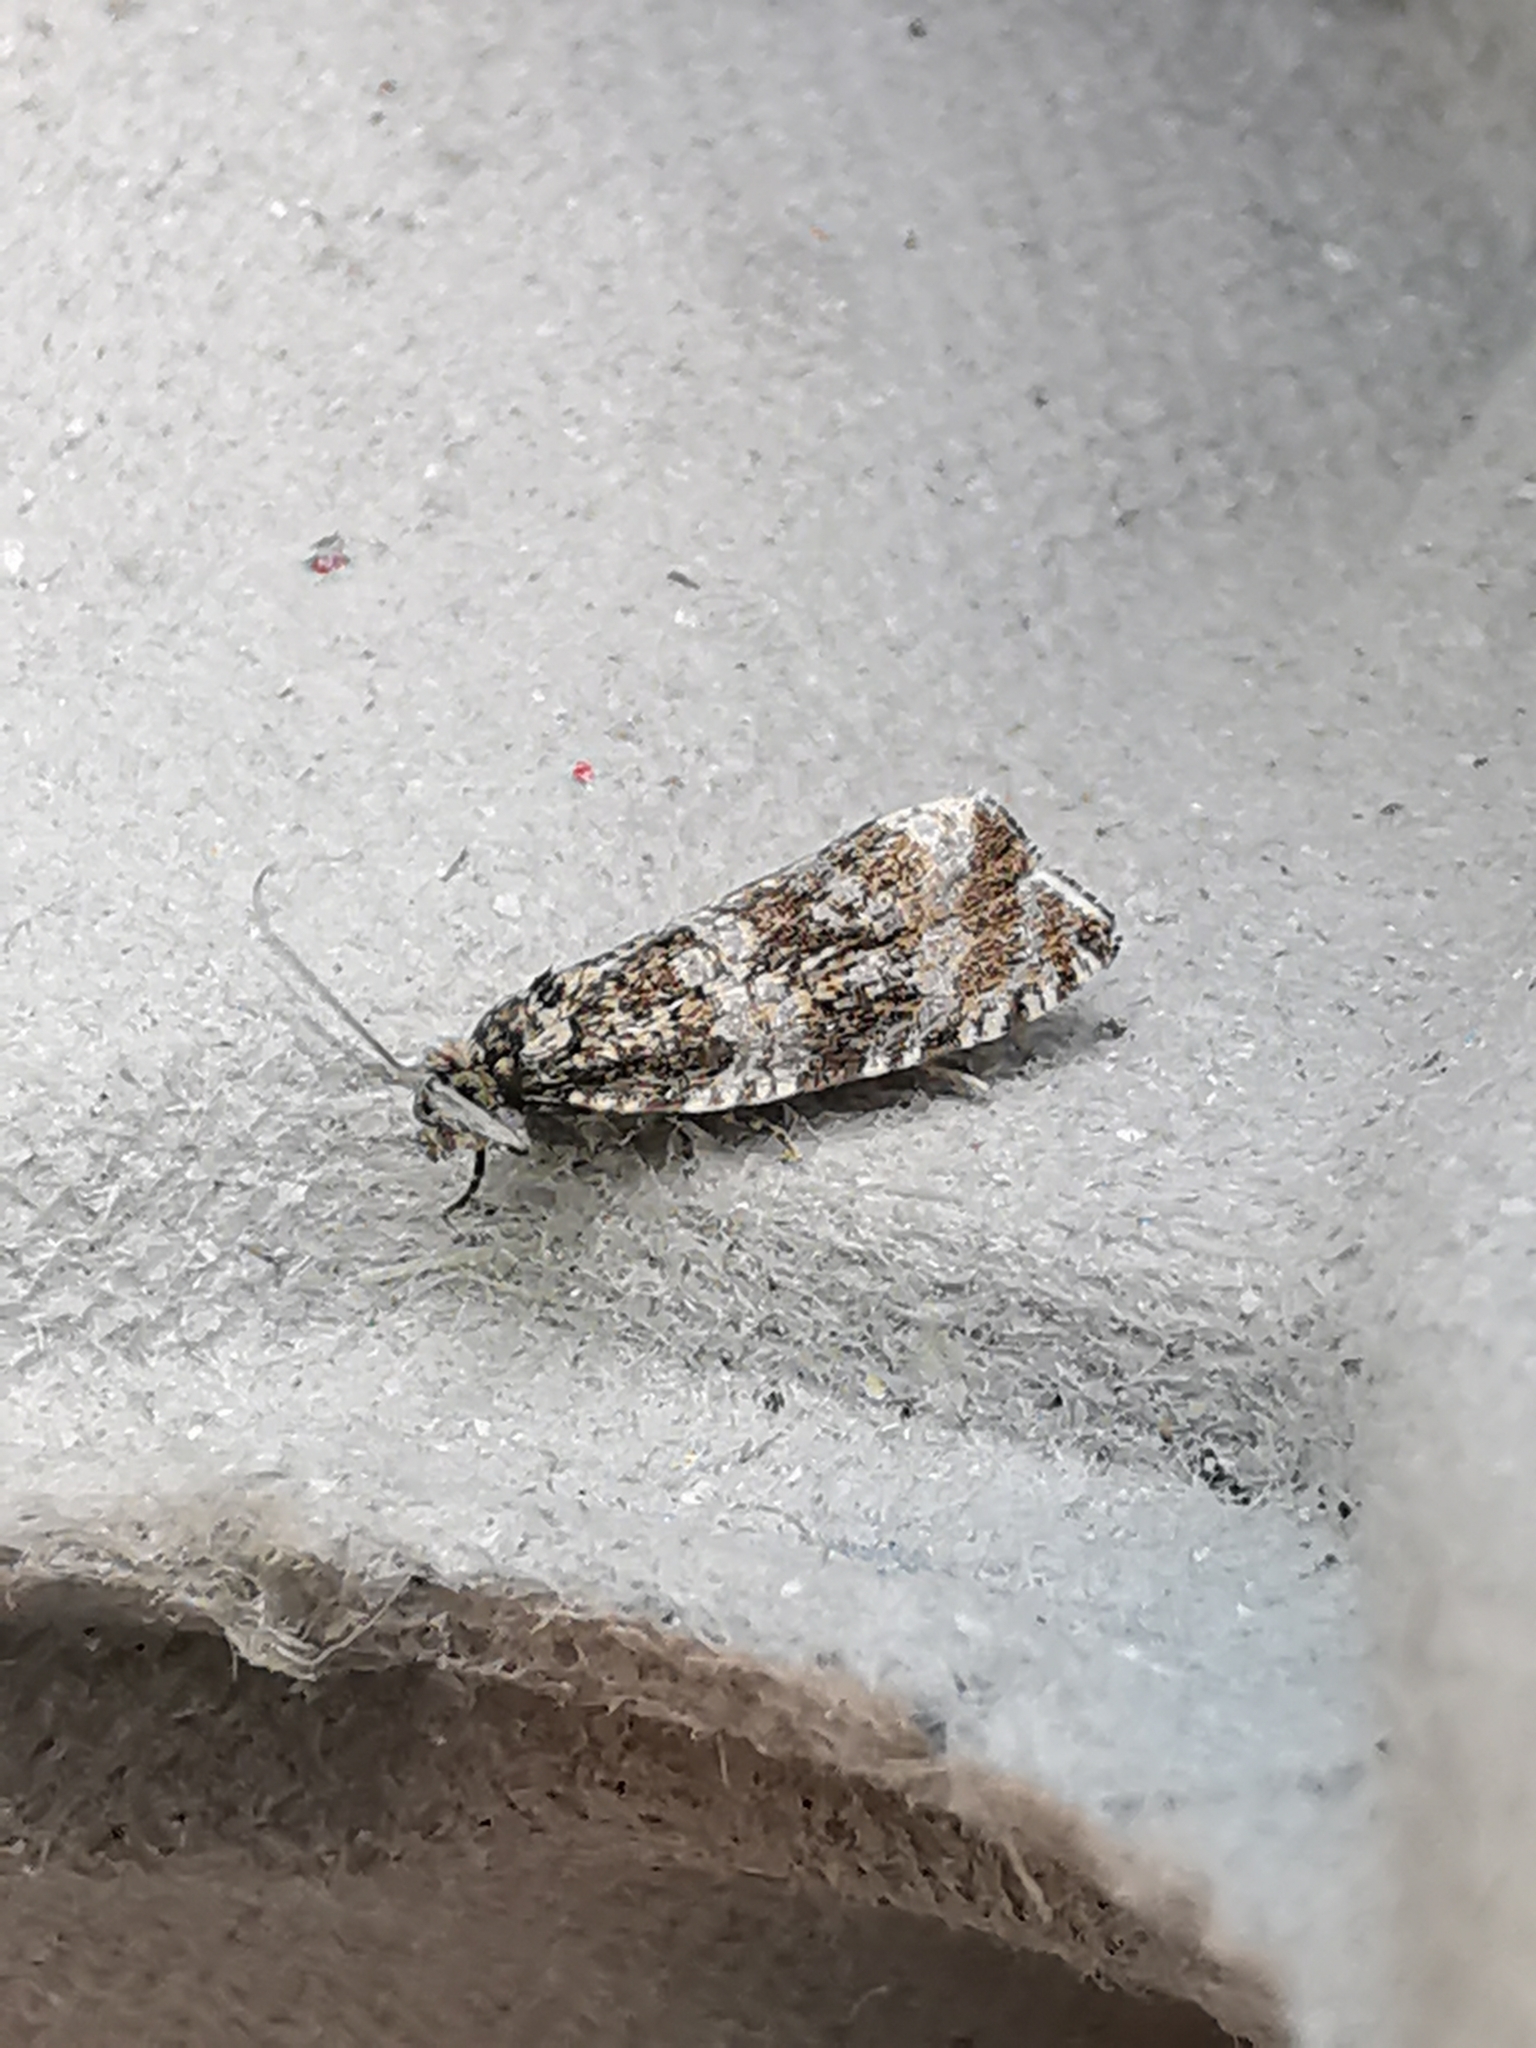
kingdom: Animalia
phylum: Arthropoda
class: Insecta
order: Lepidoptera
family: Tortricidae
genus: Syricoris
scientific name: Syricoris lacunana
